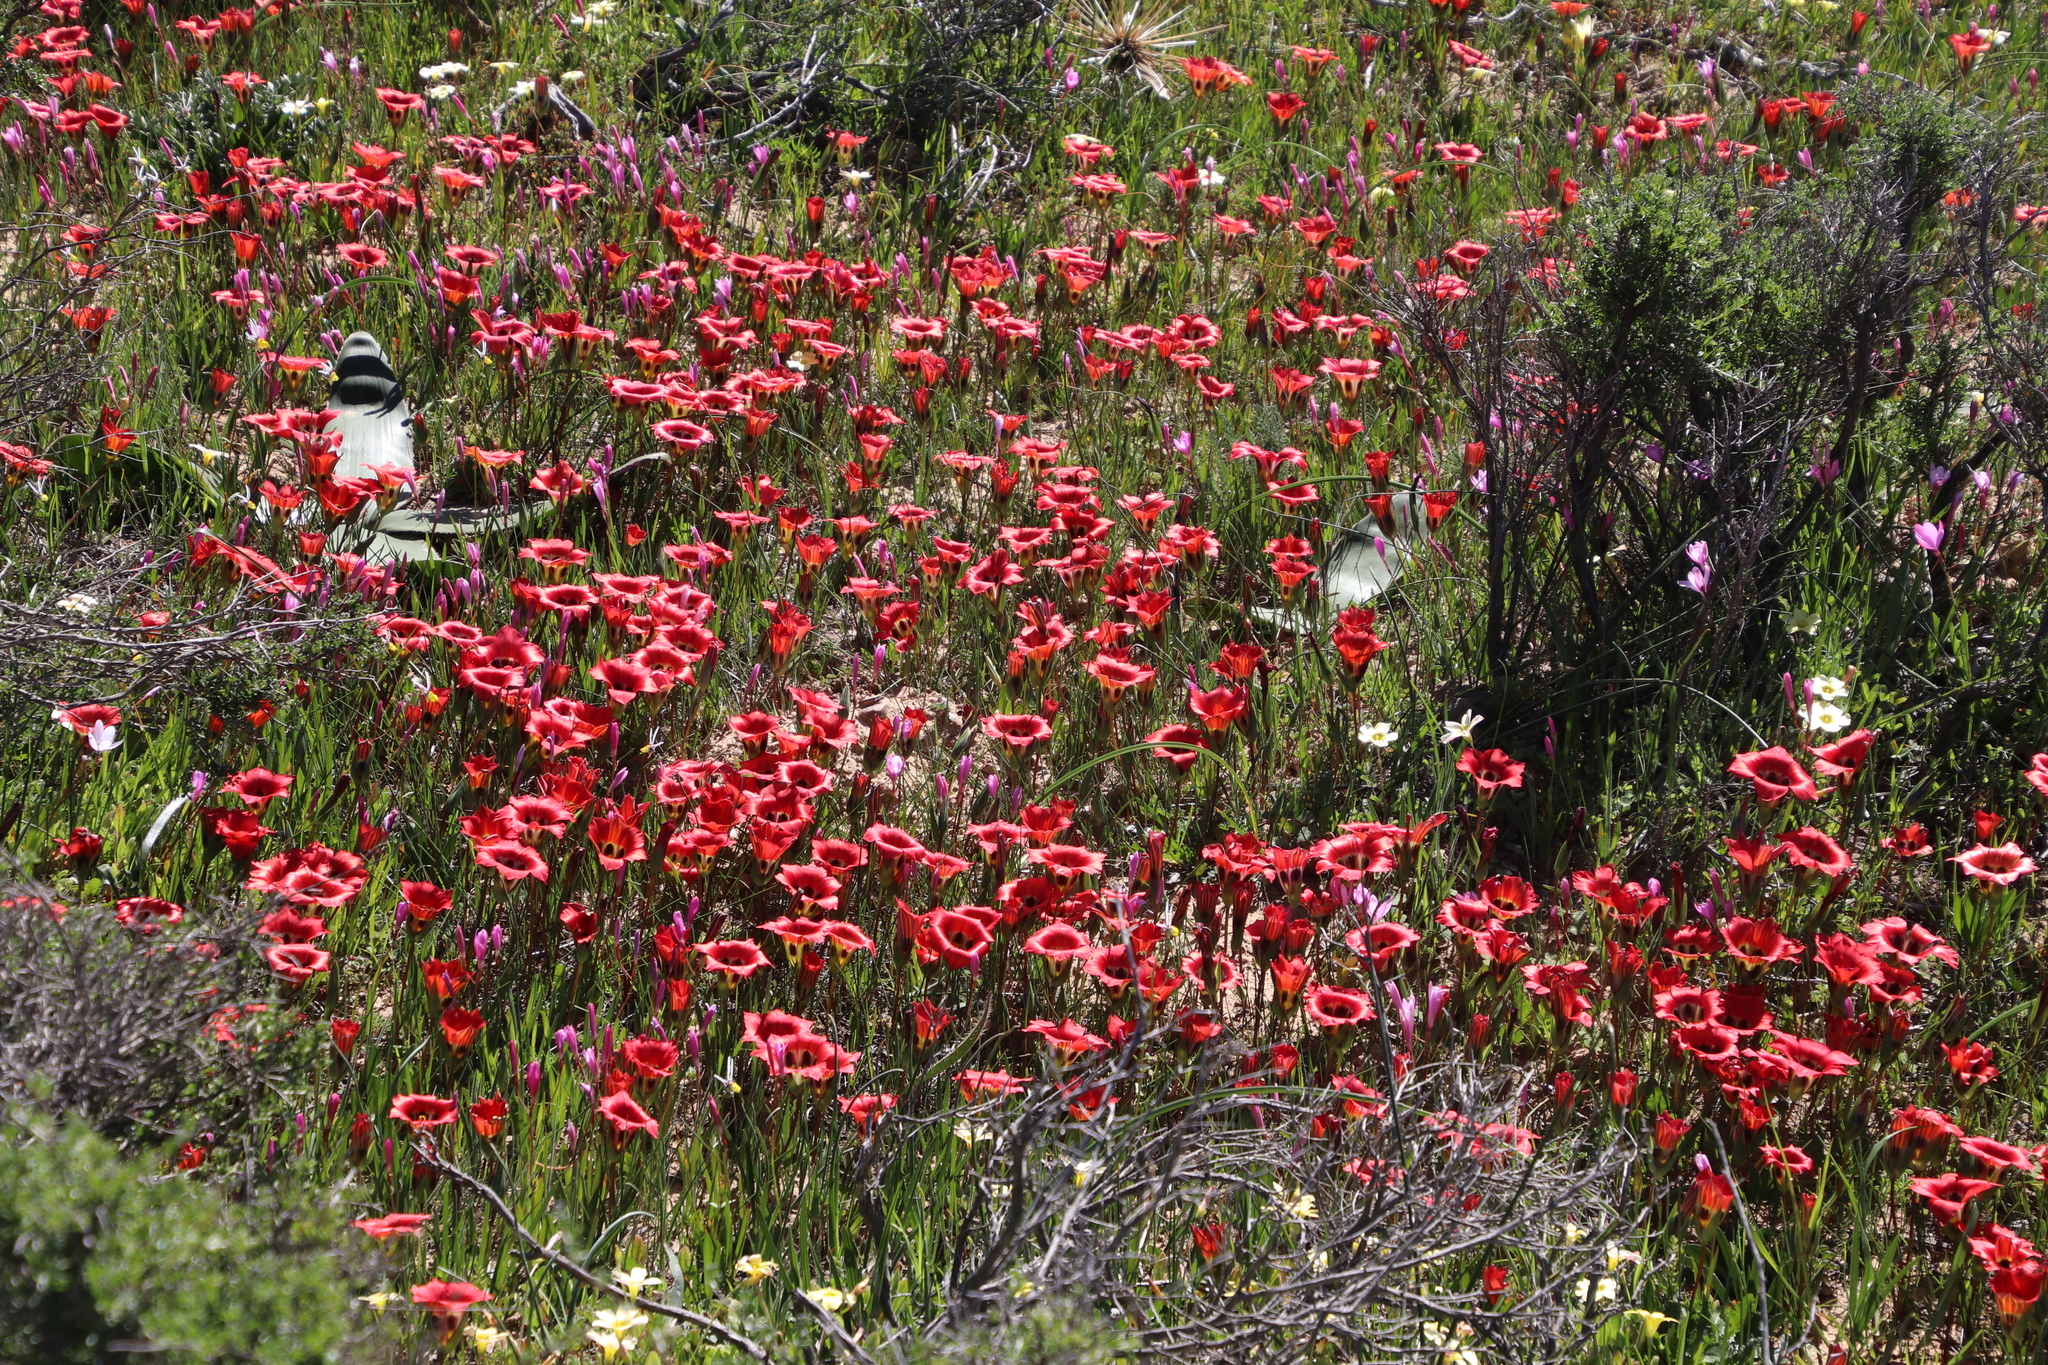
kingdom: Plantae
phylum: Tracheophyta
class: Liliopsida
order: Asparagales
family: Iridaceae
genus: Romulea
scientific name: Romulea sabulosa
